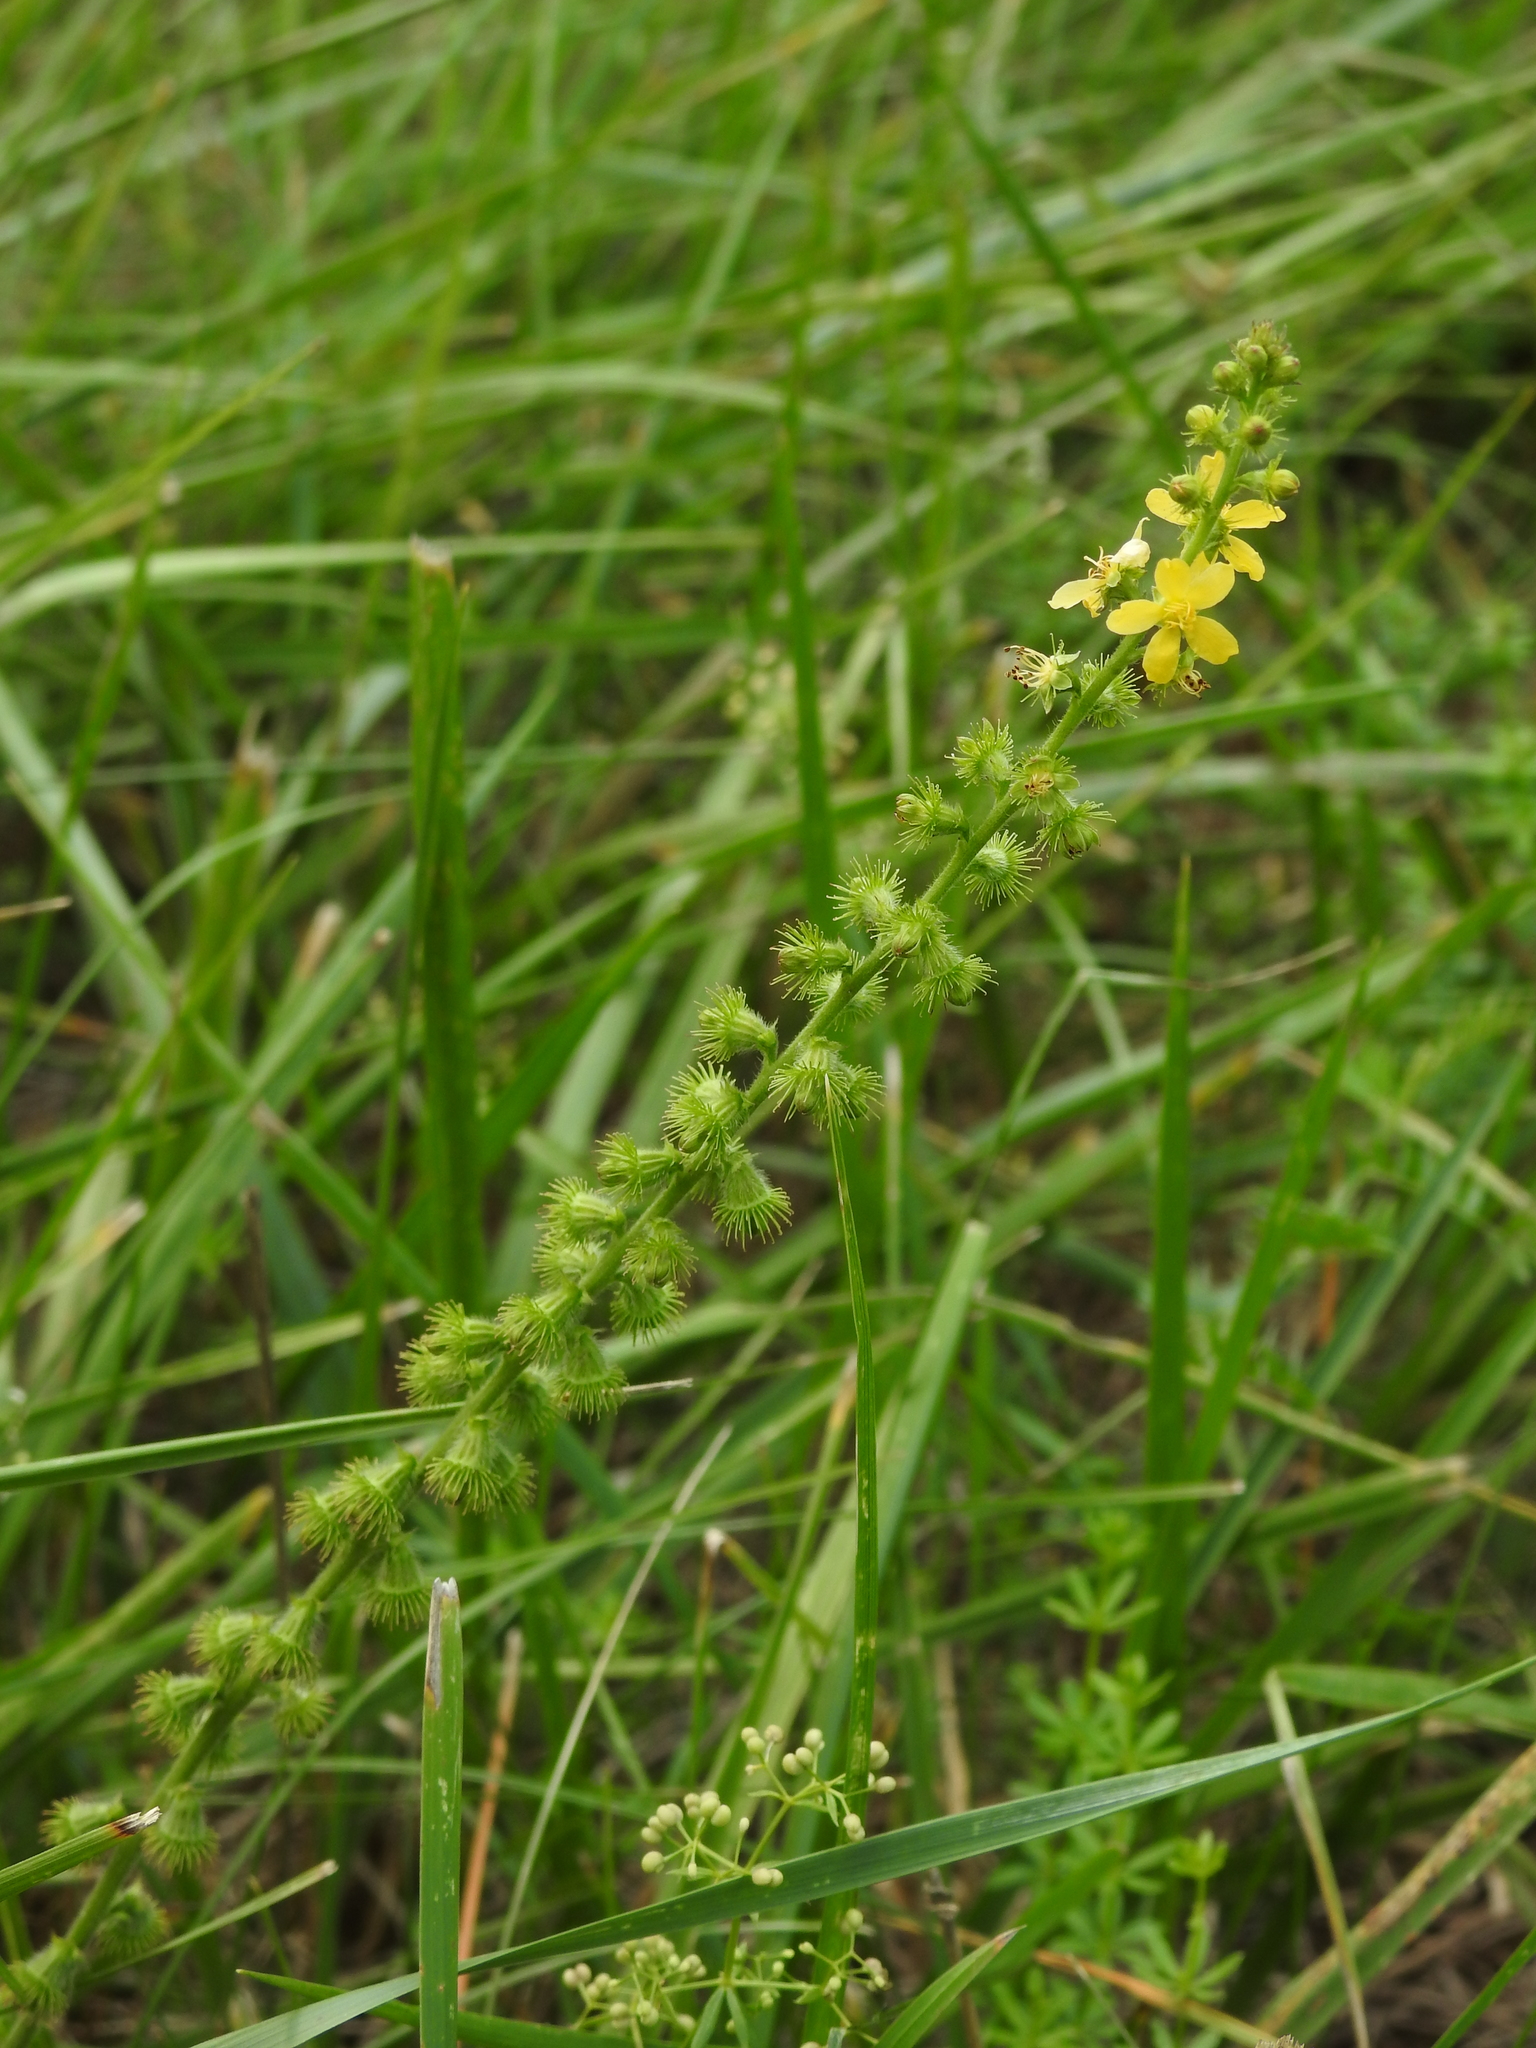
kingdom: Plantae
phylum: Tracheophyta
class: Magnoliopsida
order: Rosales
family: Rosaceae
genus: Agrimonia
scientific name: Agrimonia eupatoria
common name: Agrimony
